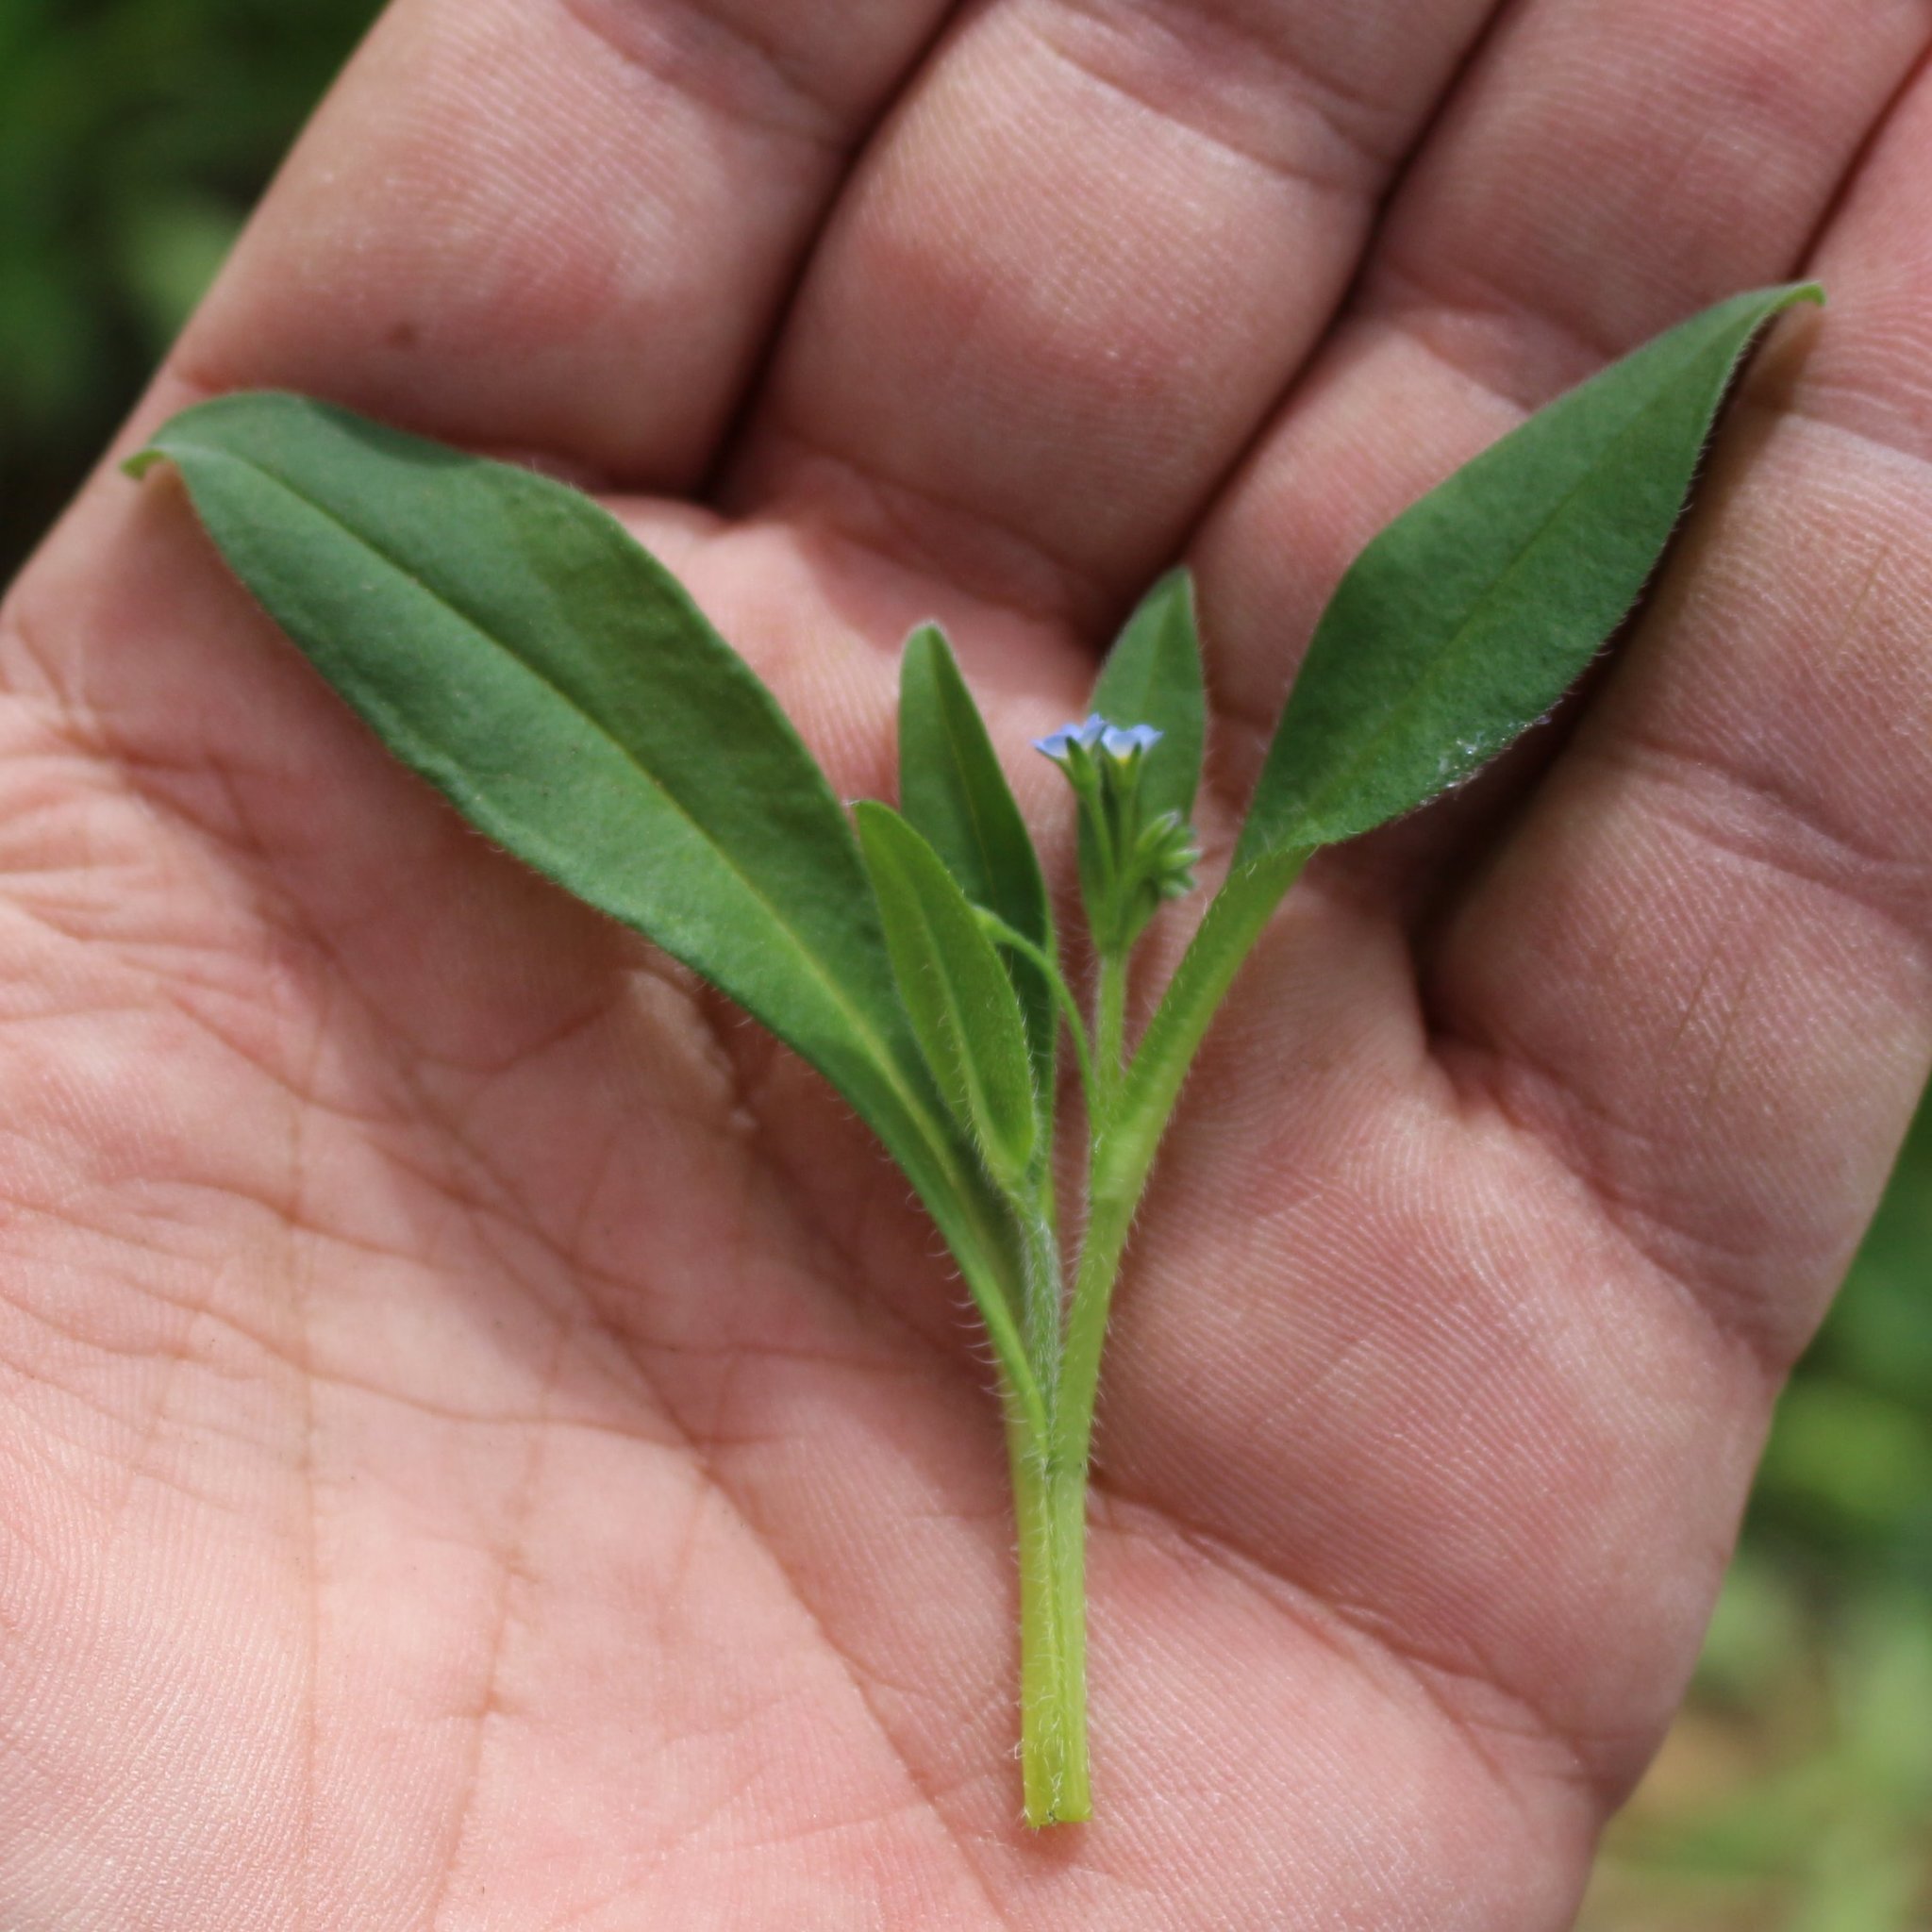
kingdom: Plantae
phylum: Tracheophyta
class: Magnoliopsida
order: Boraginales
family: Boraginaceae
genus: Myosotis
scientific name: Myosotis sparsiflora
